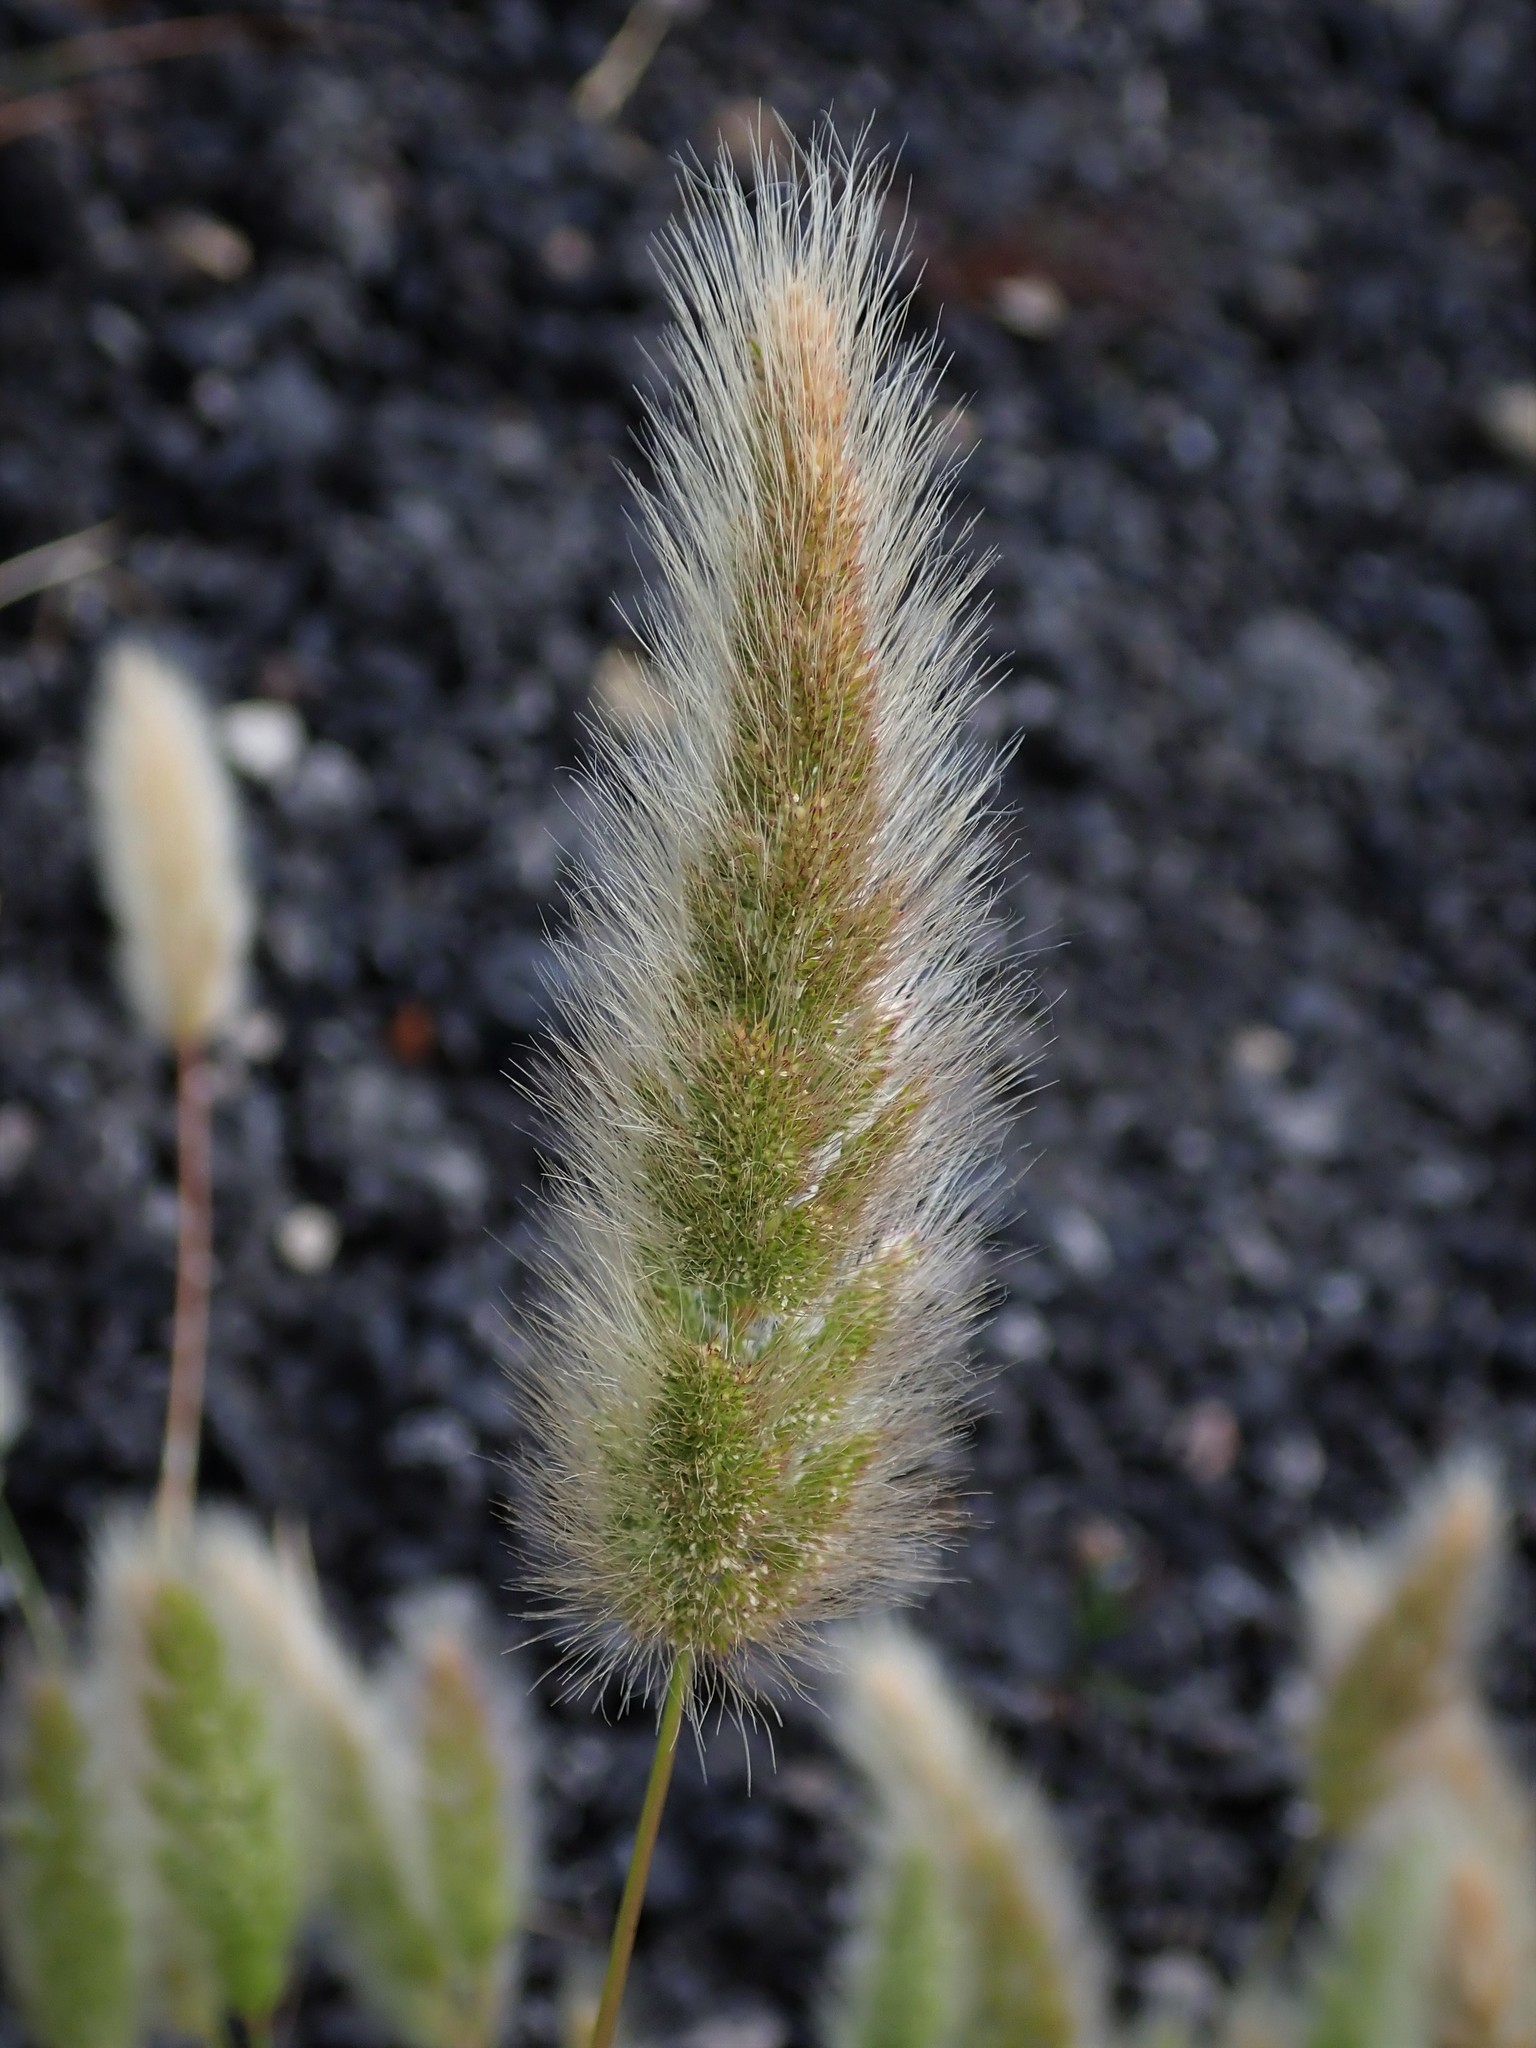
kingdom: Plantae
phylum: Tracheophyta
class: Liliopsida
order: Poales
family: Poaceae
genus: Polypogon
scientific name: Polypogon monspeliensis
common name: Annual rabbitsfoot grass
